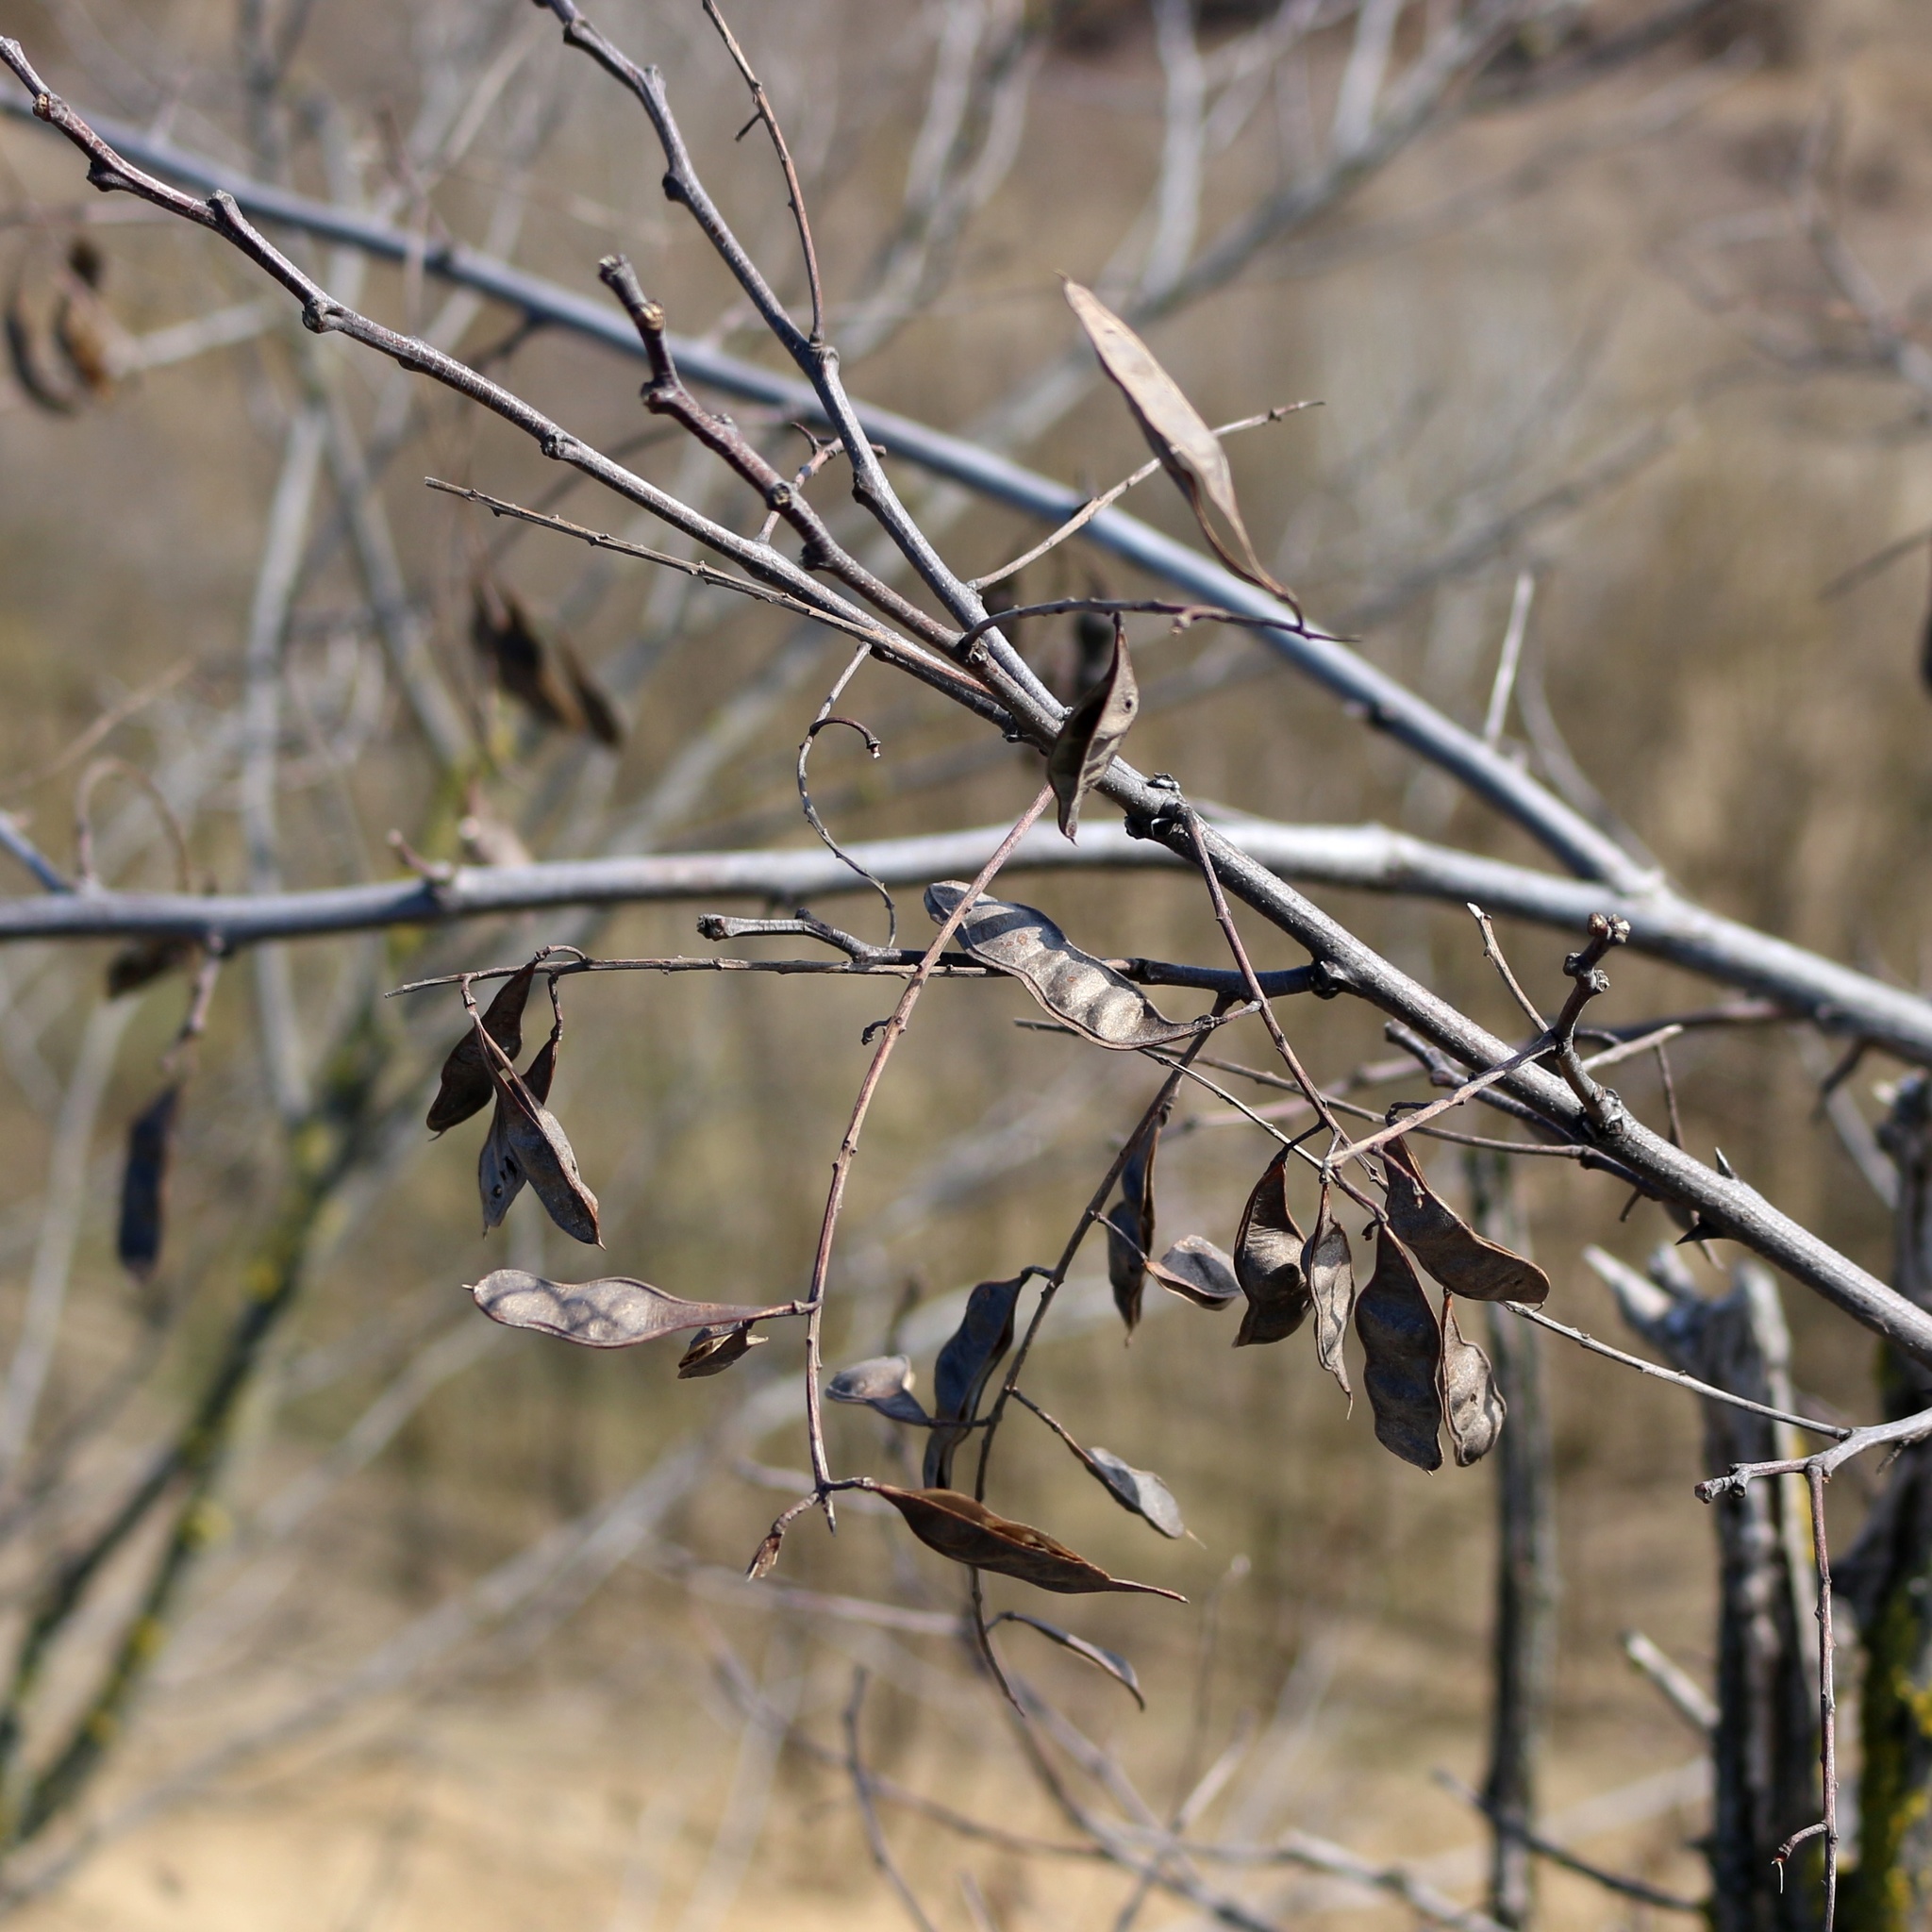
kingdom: Plantae
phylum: Tracheophyta
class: Magnoliopsida
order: Fabales
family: Fabaceae
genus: Robinia
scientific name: Robinia pseudoacacia
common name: Black locust
